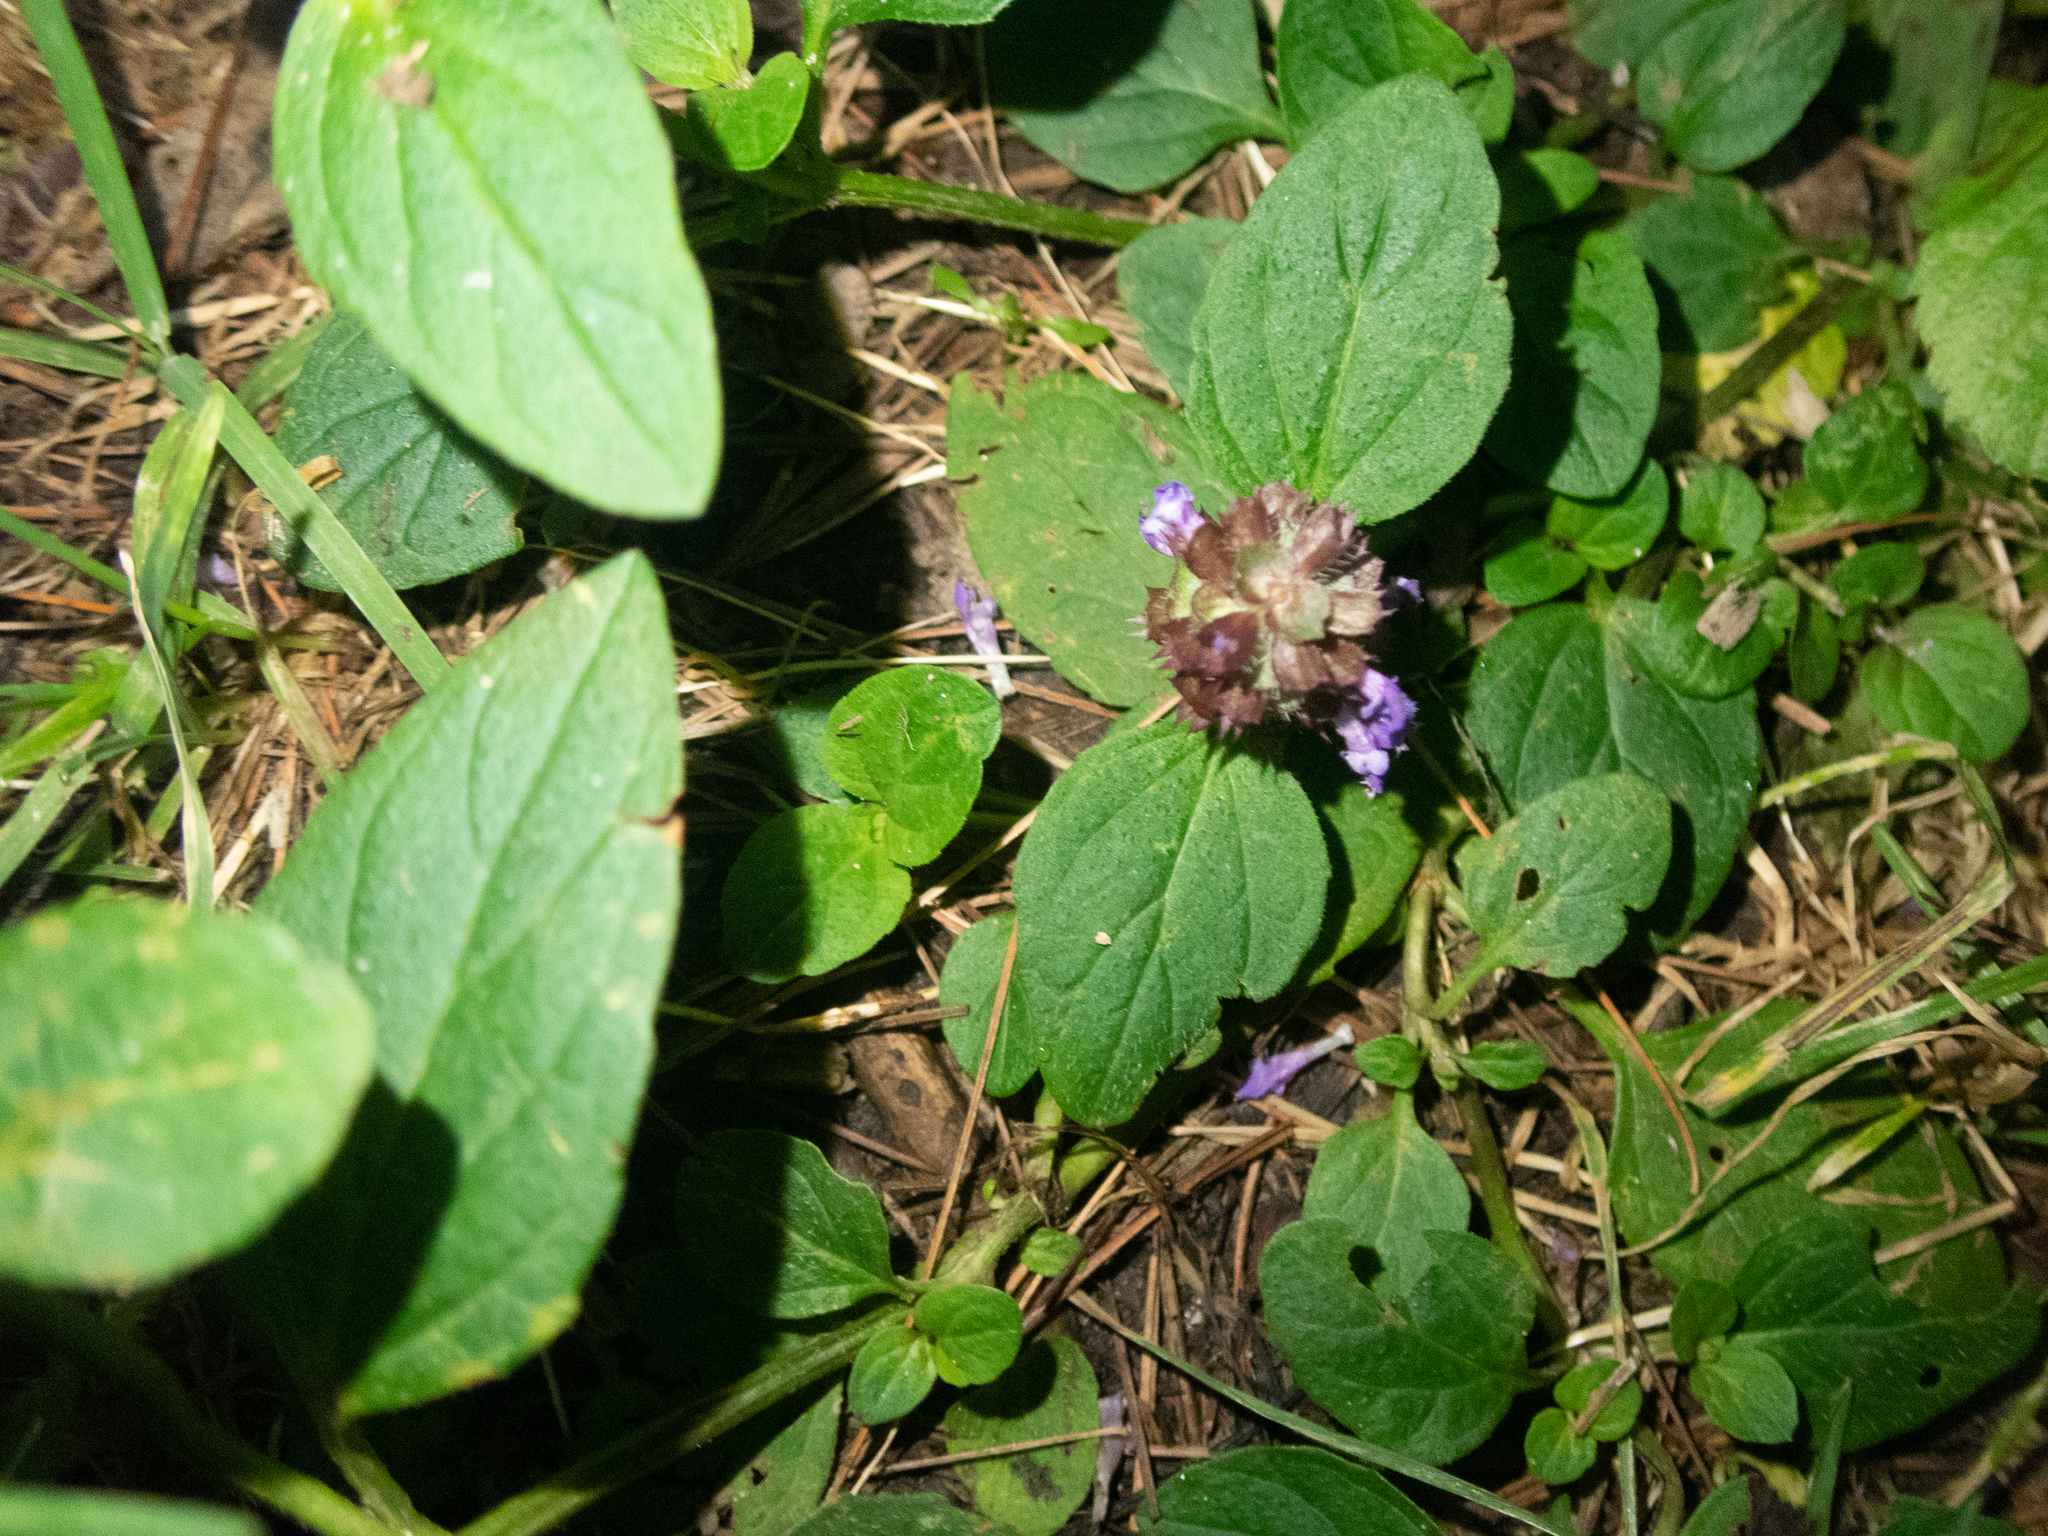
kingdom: Plantae
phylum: Tracheophyta
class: Magnoliopsida
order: Lamiales
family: Lamiaceae
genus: Prunella
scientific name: Prunella vulgaris
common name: Heal-all
